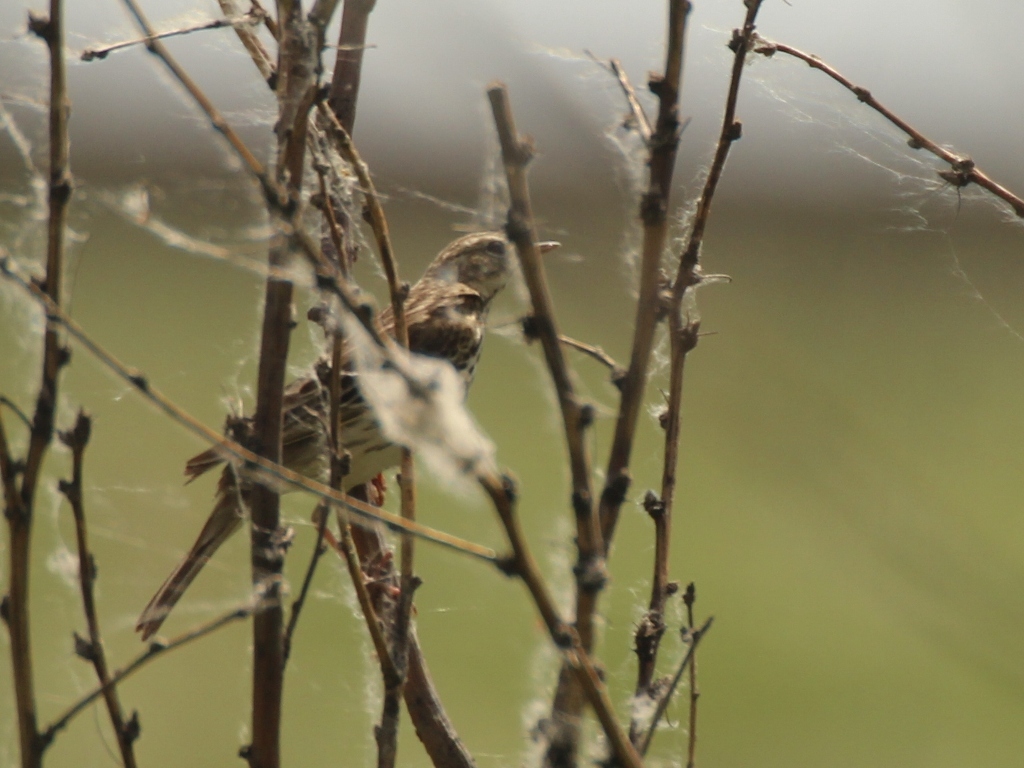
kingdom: Animalia
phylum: Chordata
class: Aves
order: Passeriformes
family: Motacillidae
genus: Anthus
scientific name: Anthus trivialis
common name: Tree pipit
